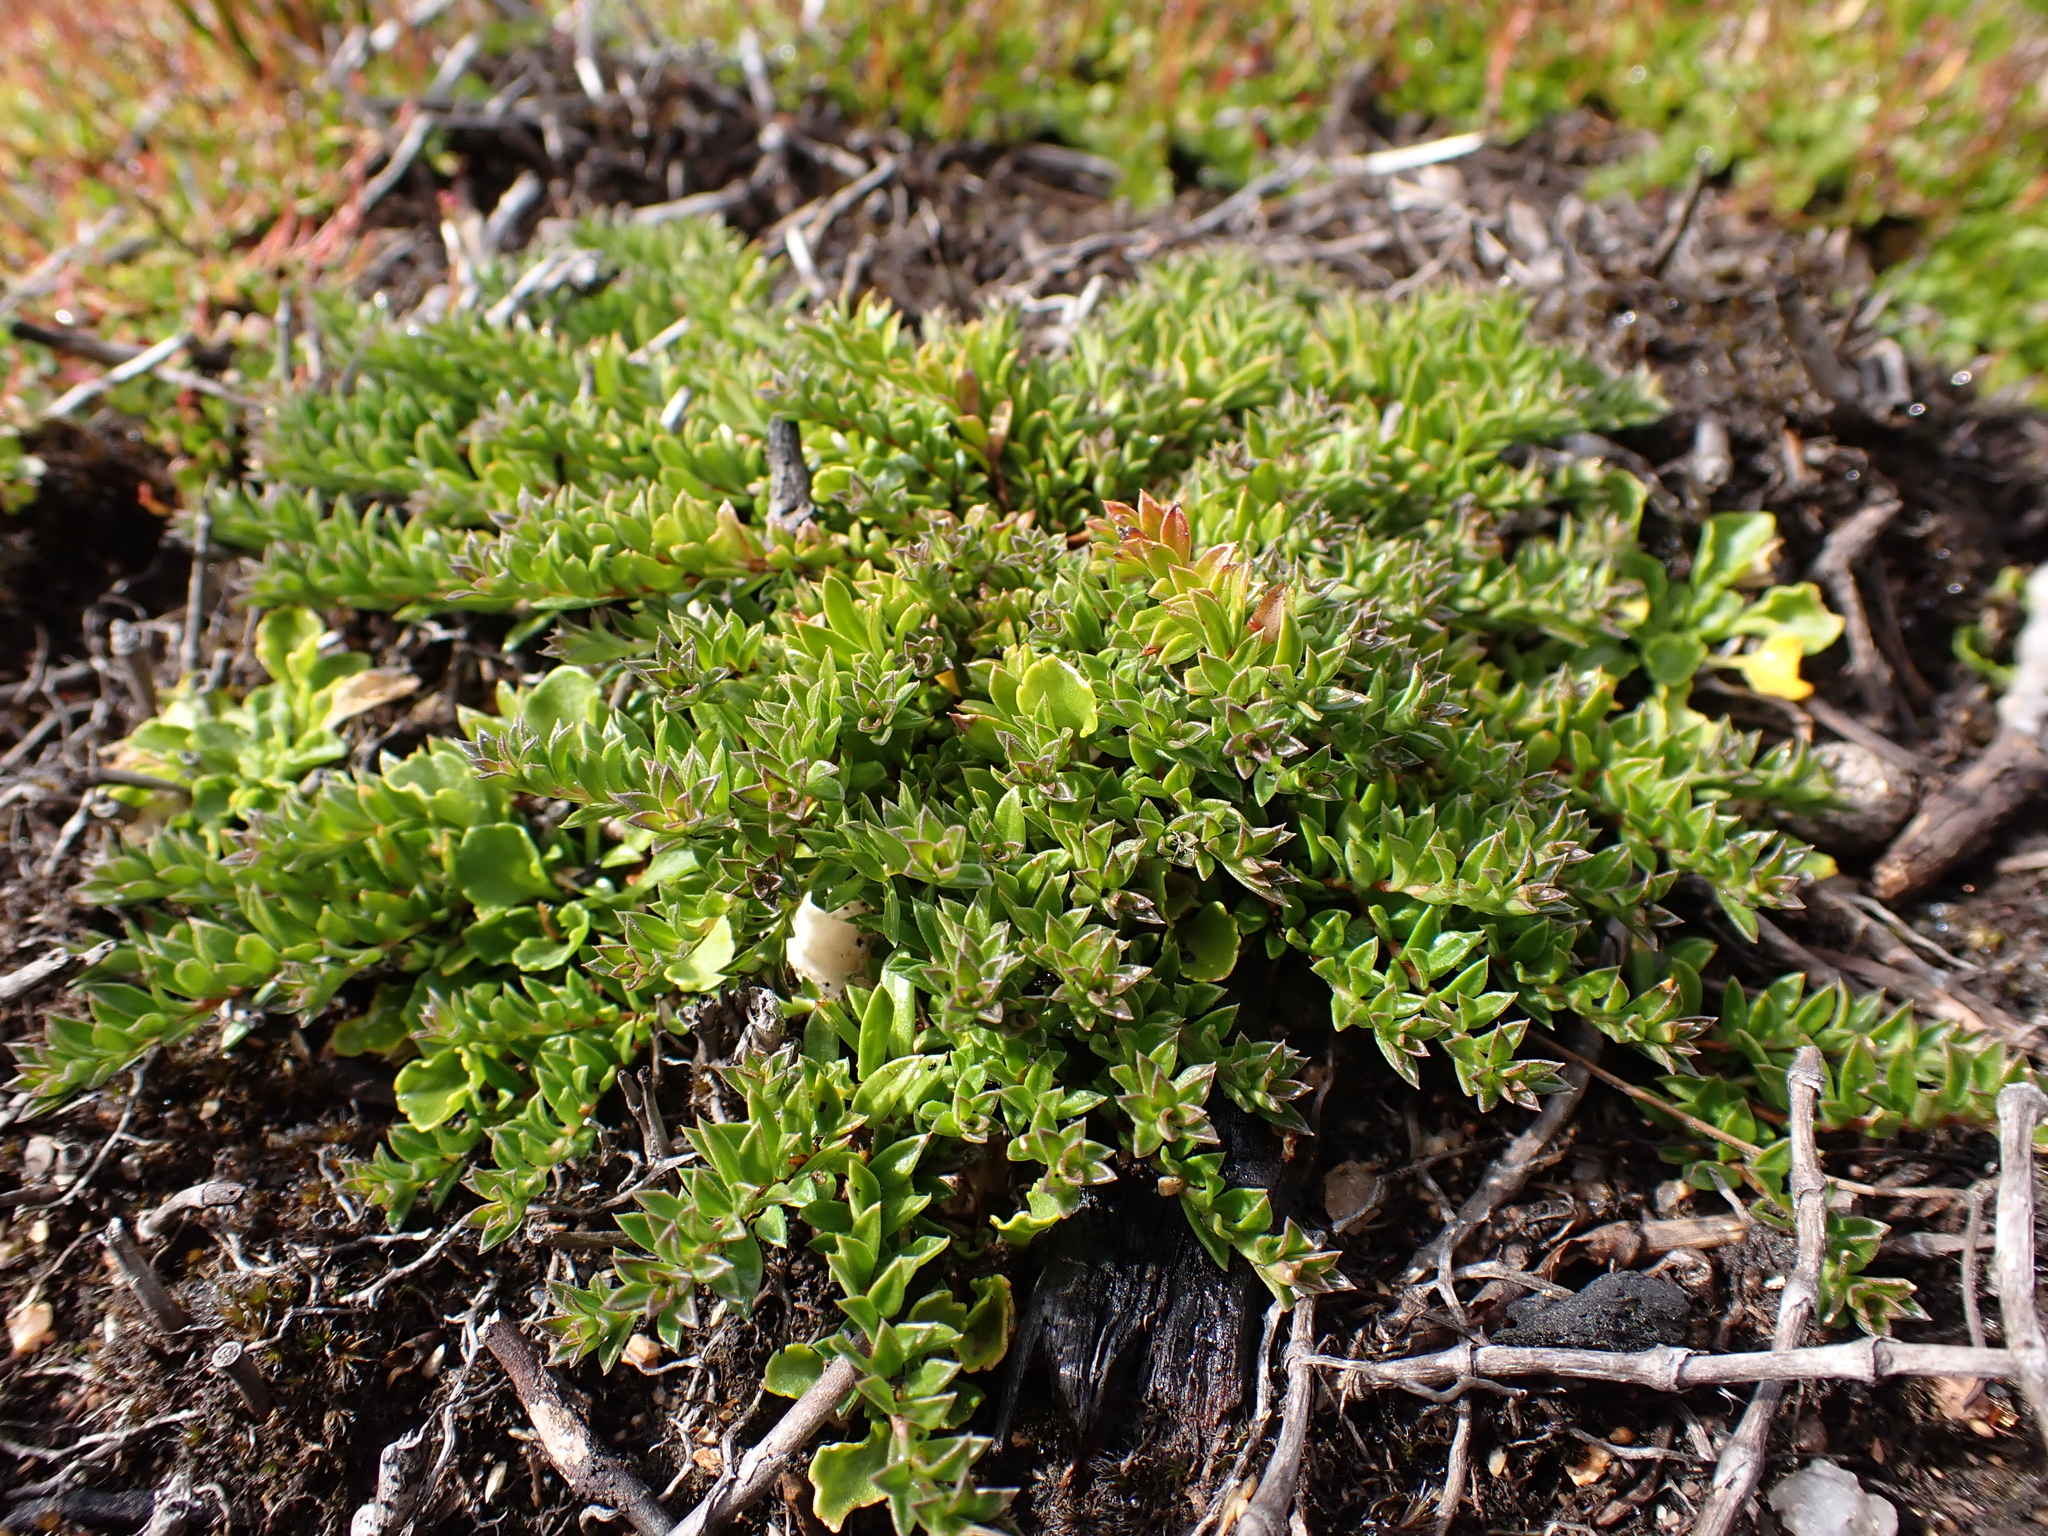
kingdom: Plantae
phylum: Tracheophyta
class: Magnoliopsida
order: Apiales
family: Pittosporaceae
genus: Rhytidosporum
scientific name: Rhytidosporum inconspicuum
